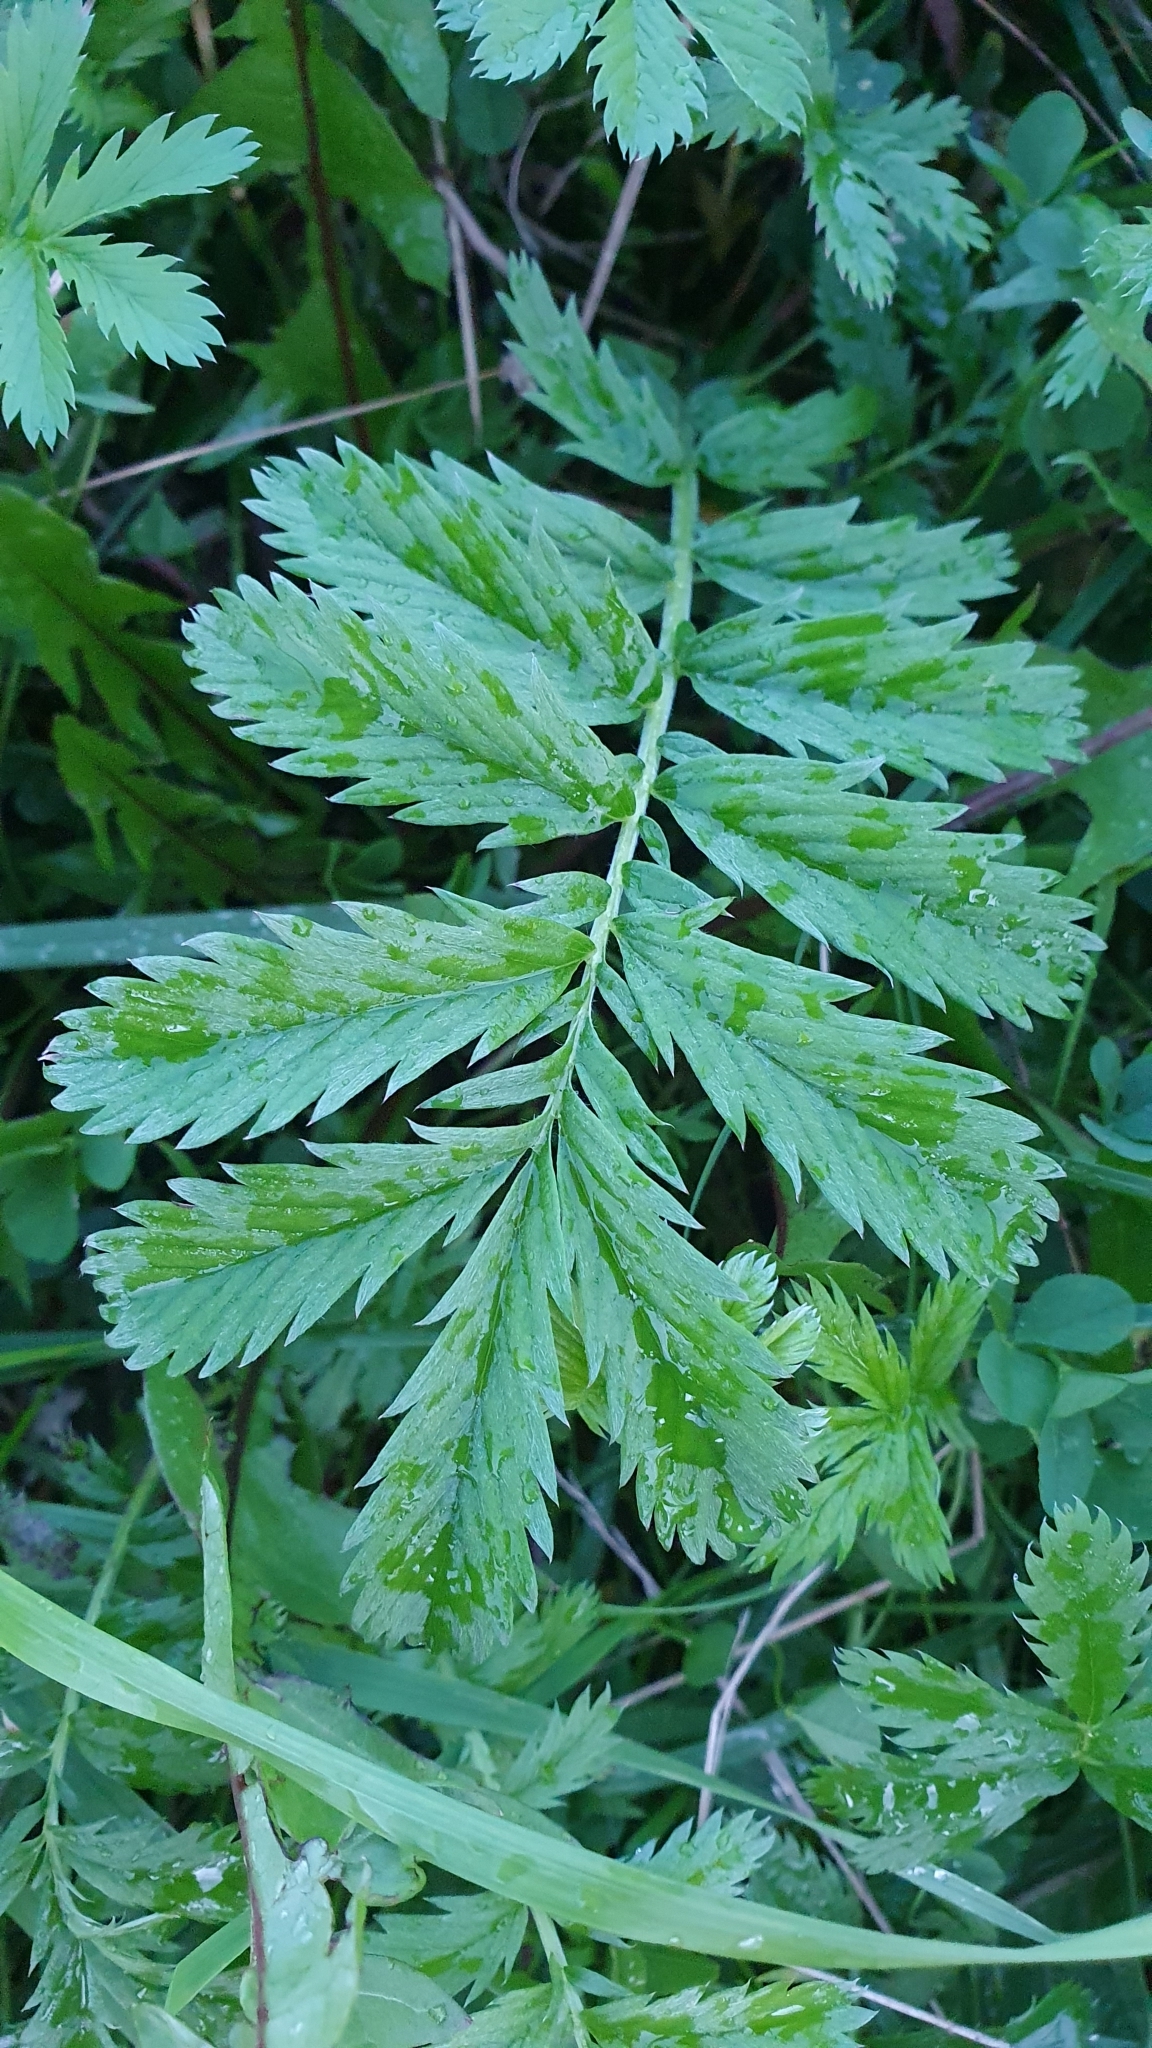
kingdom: Plantae
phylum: Tracheophyta
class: Magnoliopsida
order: Rosales
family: Rosaceae
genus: Argentina
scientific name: Argentina anserina
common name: Common silverweed
